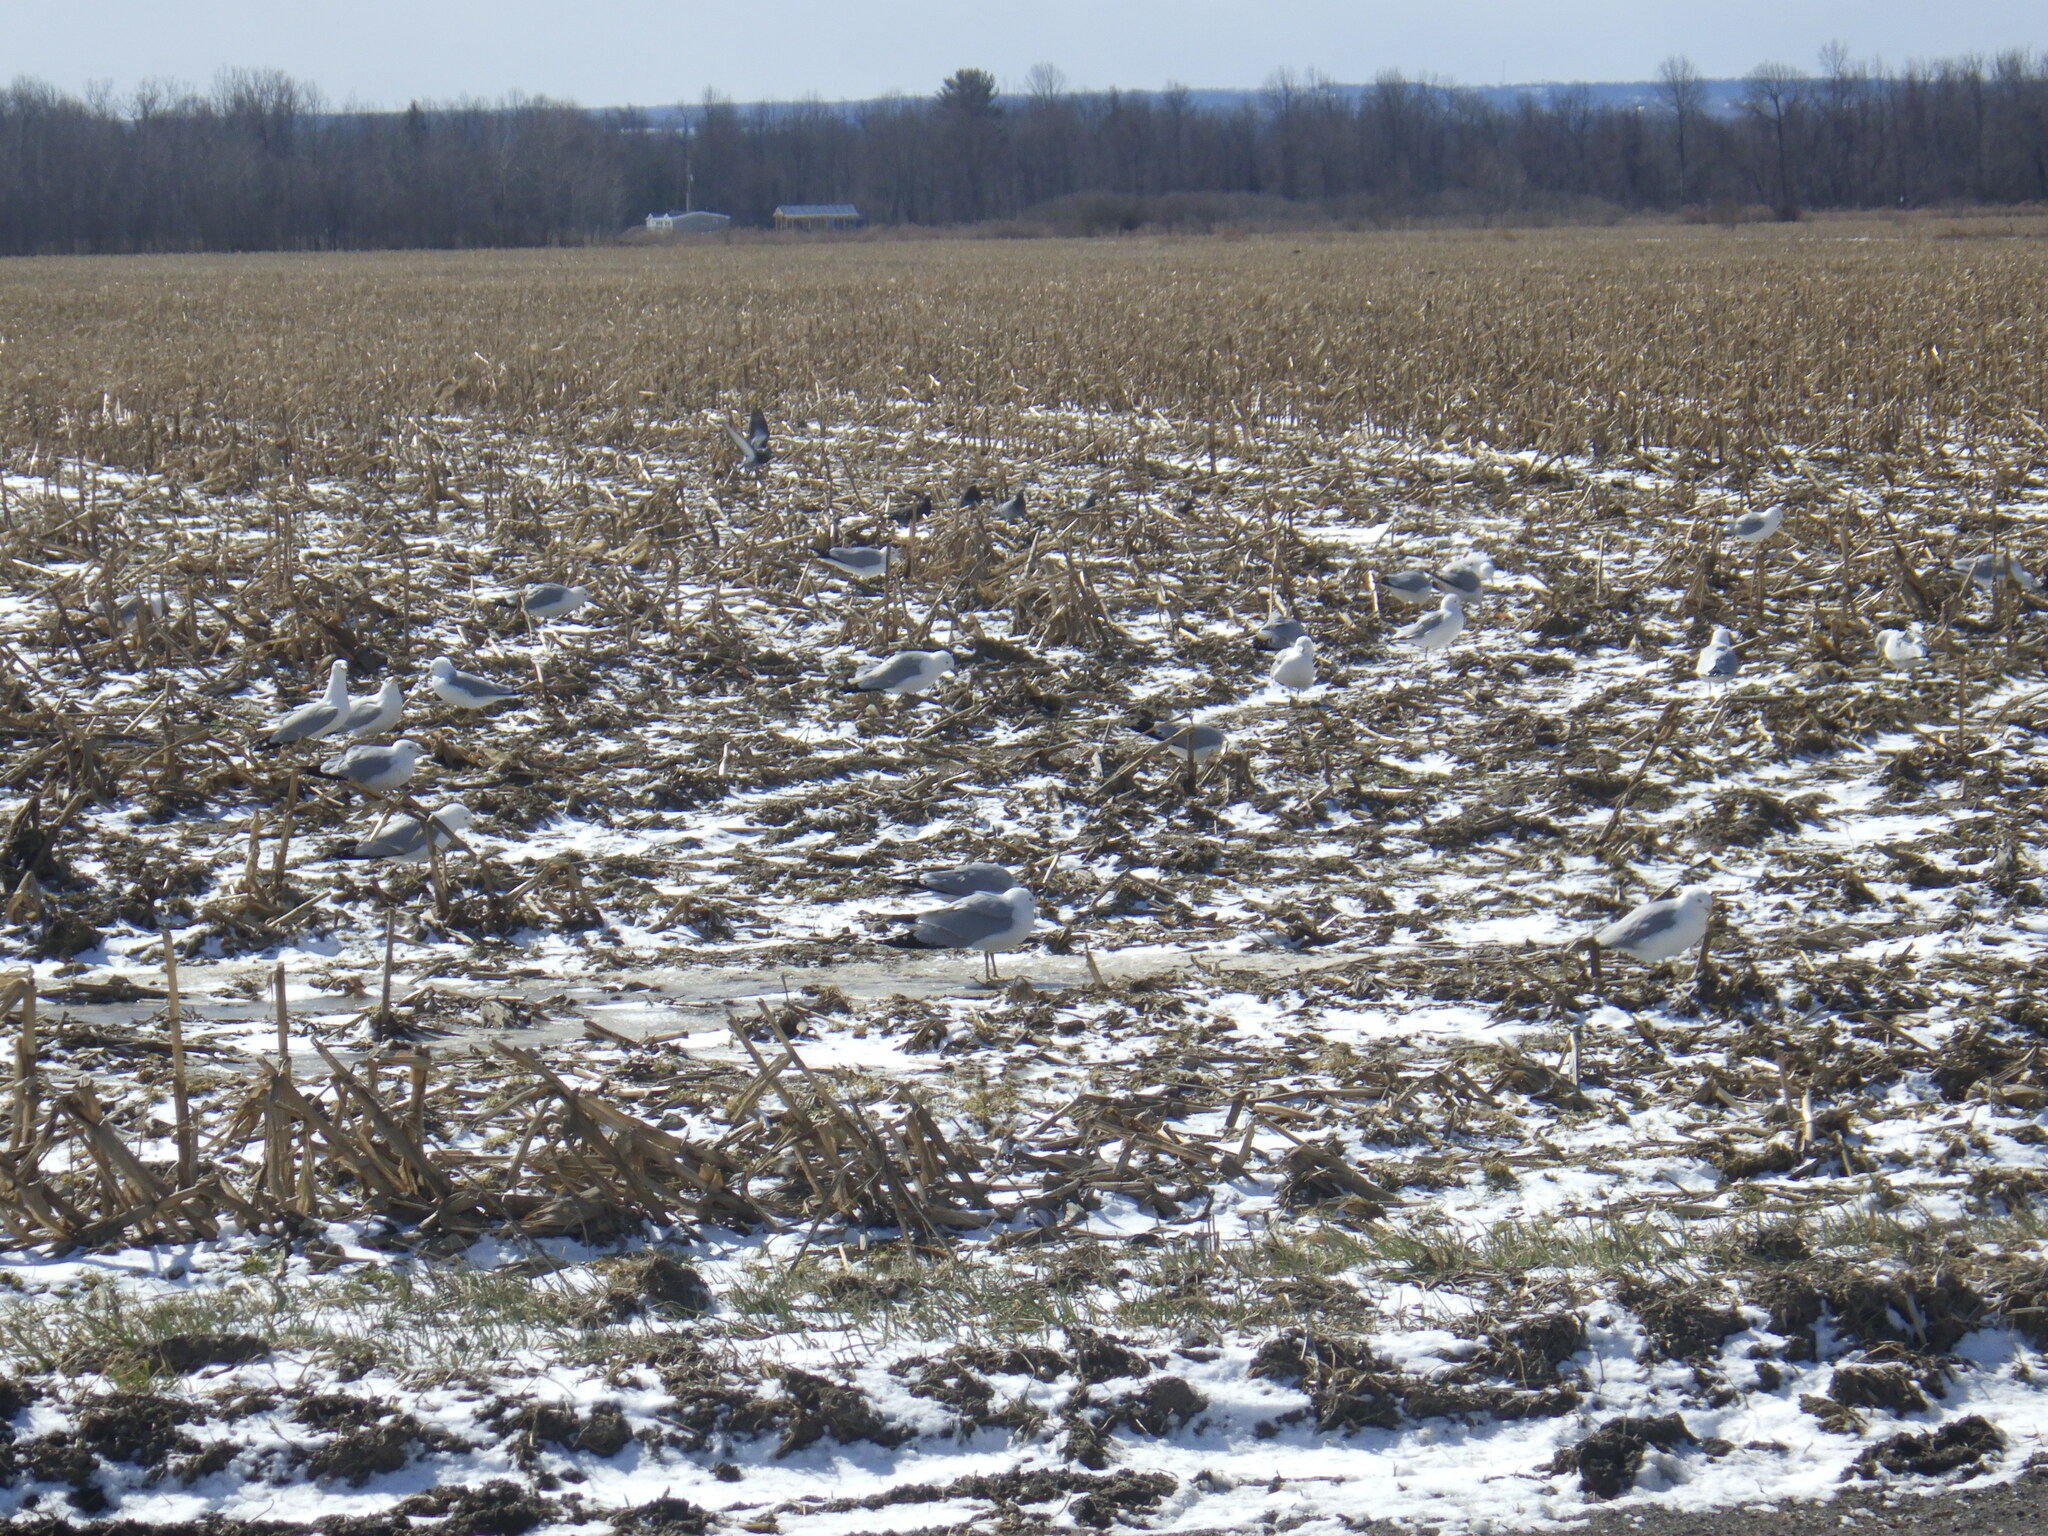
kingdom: Animalia
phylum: Chordata
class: Aves
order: Charadriiformes
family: Laridae
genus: Larus
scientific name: Larus delawarensis
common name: Ring-billed gull
